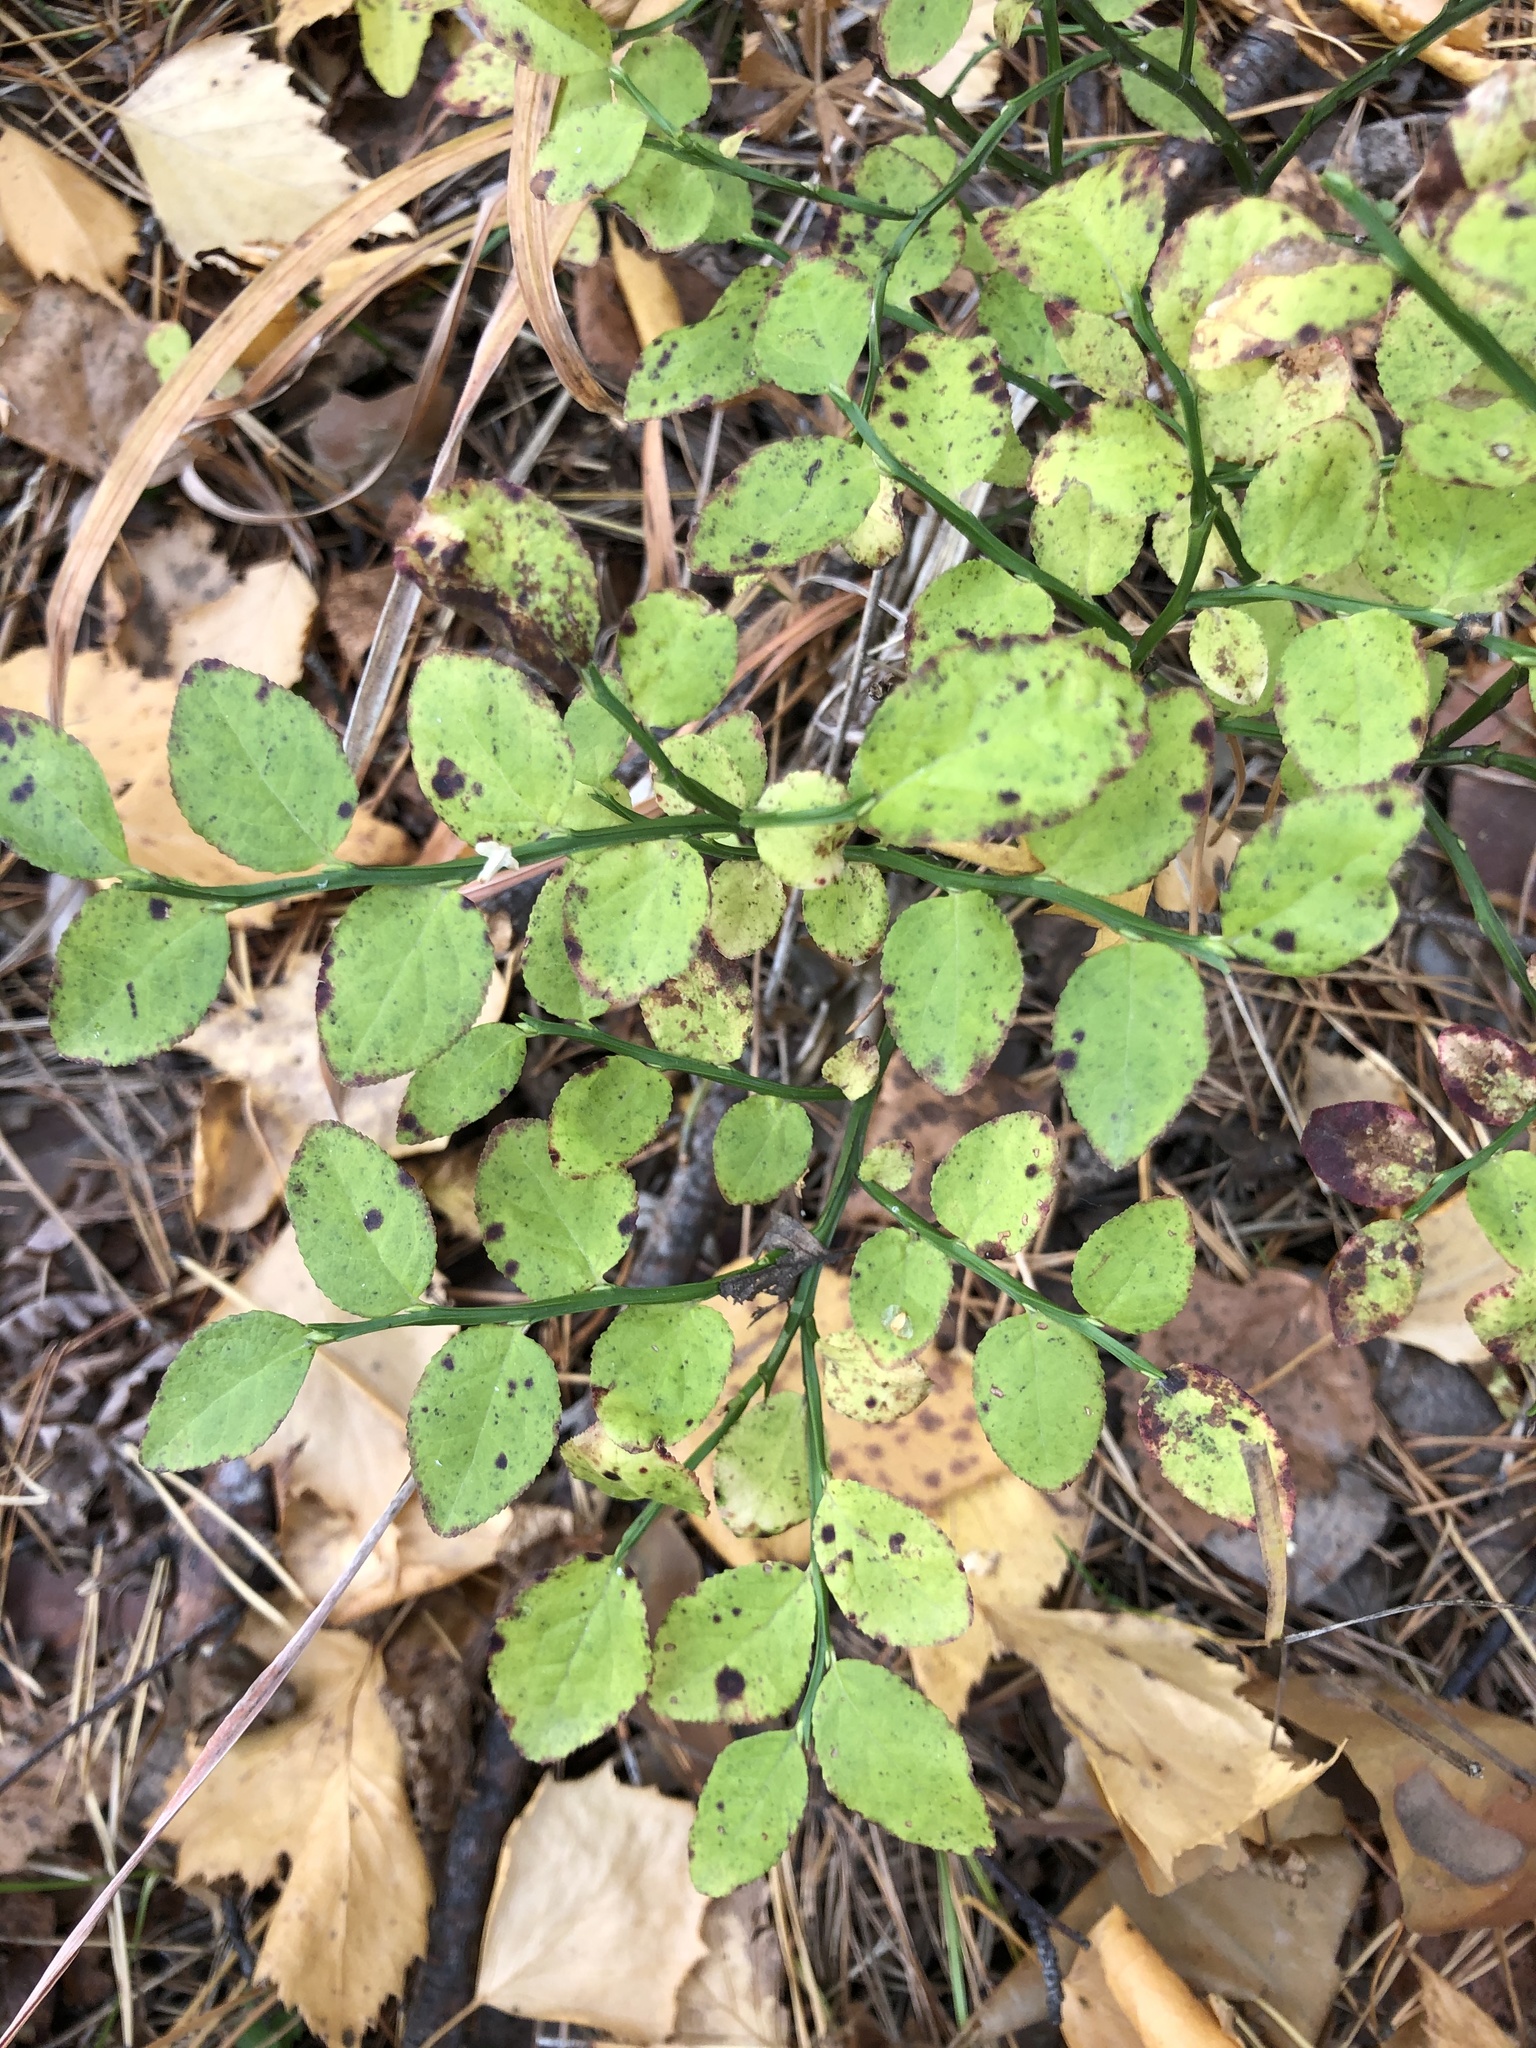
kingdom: Plantae
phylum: Tracheophyta
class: Magnoliopsida
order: Ericales
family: Ericaceae
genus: Vaccinium
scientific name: Vaccinium myrtillus
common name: Bilberry
